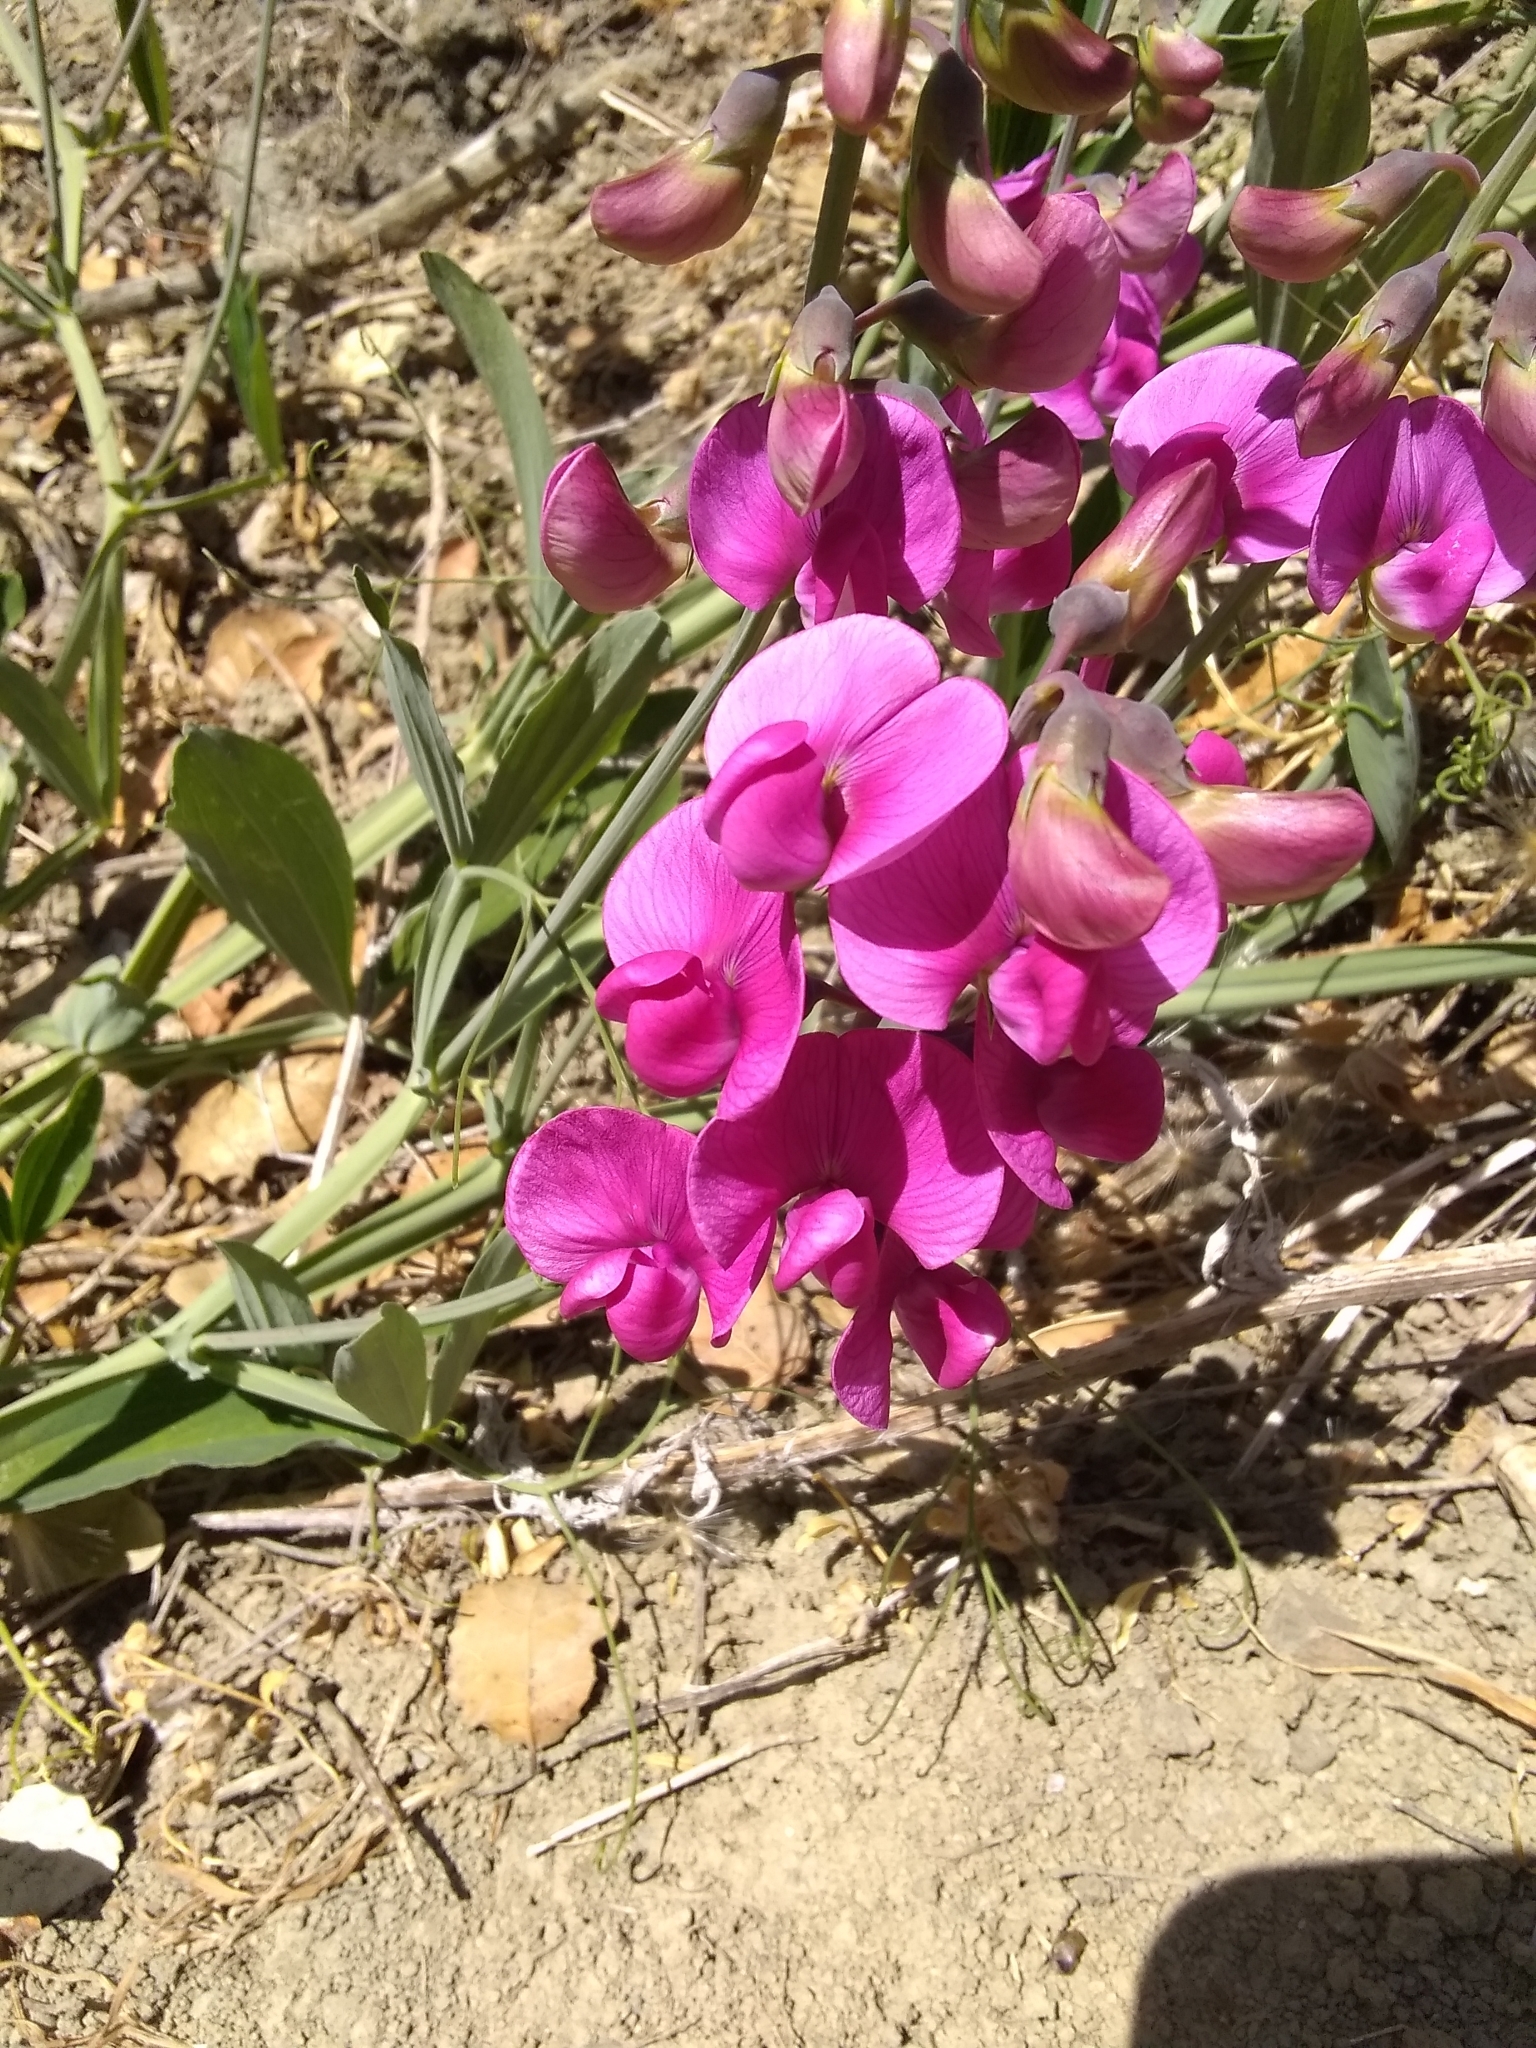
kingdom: Plantae
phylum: Tracheophyta
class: Magnoliopsida
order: Fabales
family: Fabaceae
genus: Lathyrus
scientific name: Lathyrus latifolius
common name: Perennial pea
